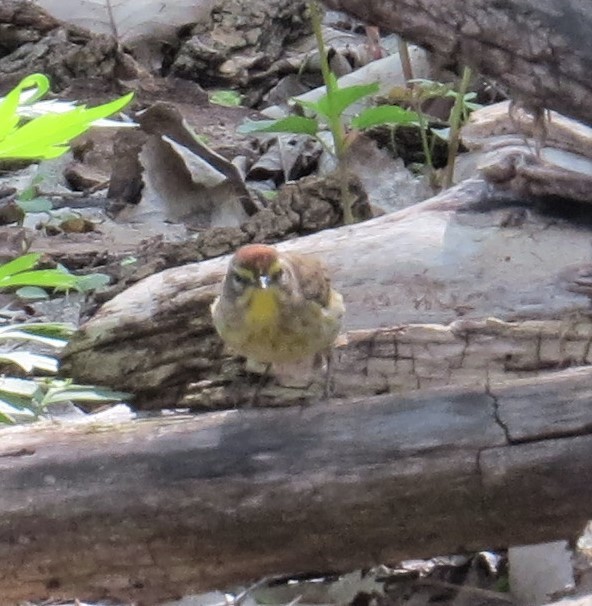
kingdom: Animalia
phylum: Chordata
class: Aves
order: Passeriformes
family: Parulidae
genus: Setophaga
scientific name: Setophaga palmarum
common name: Palm warbler
